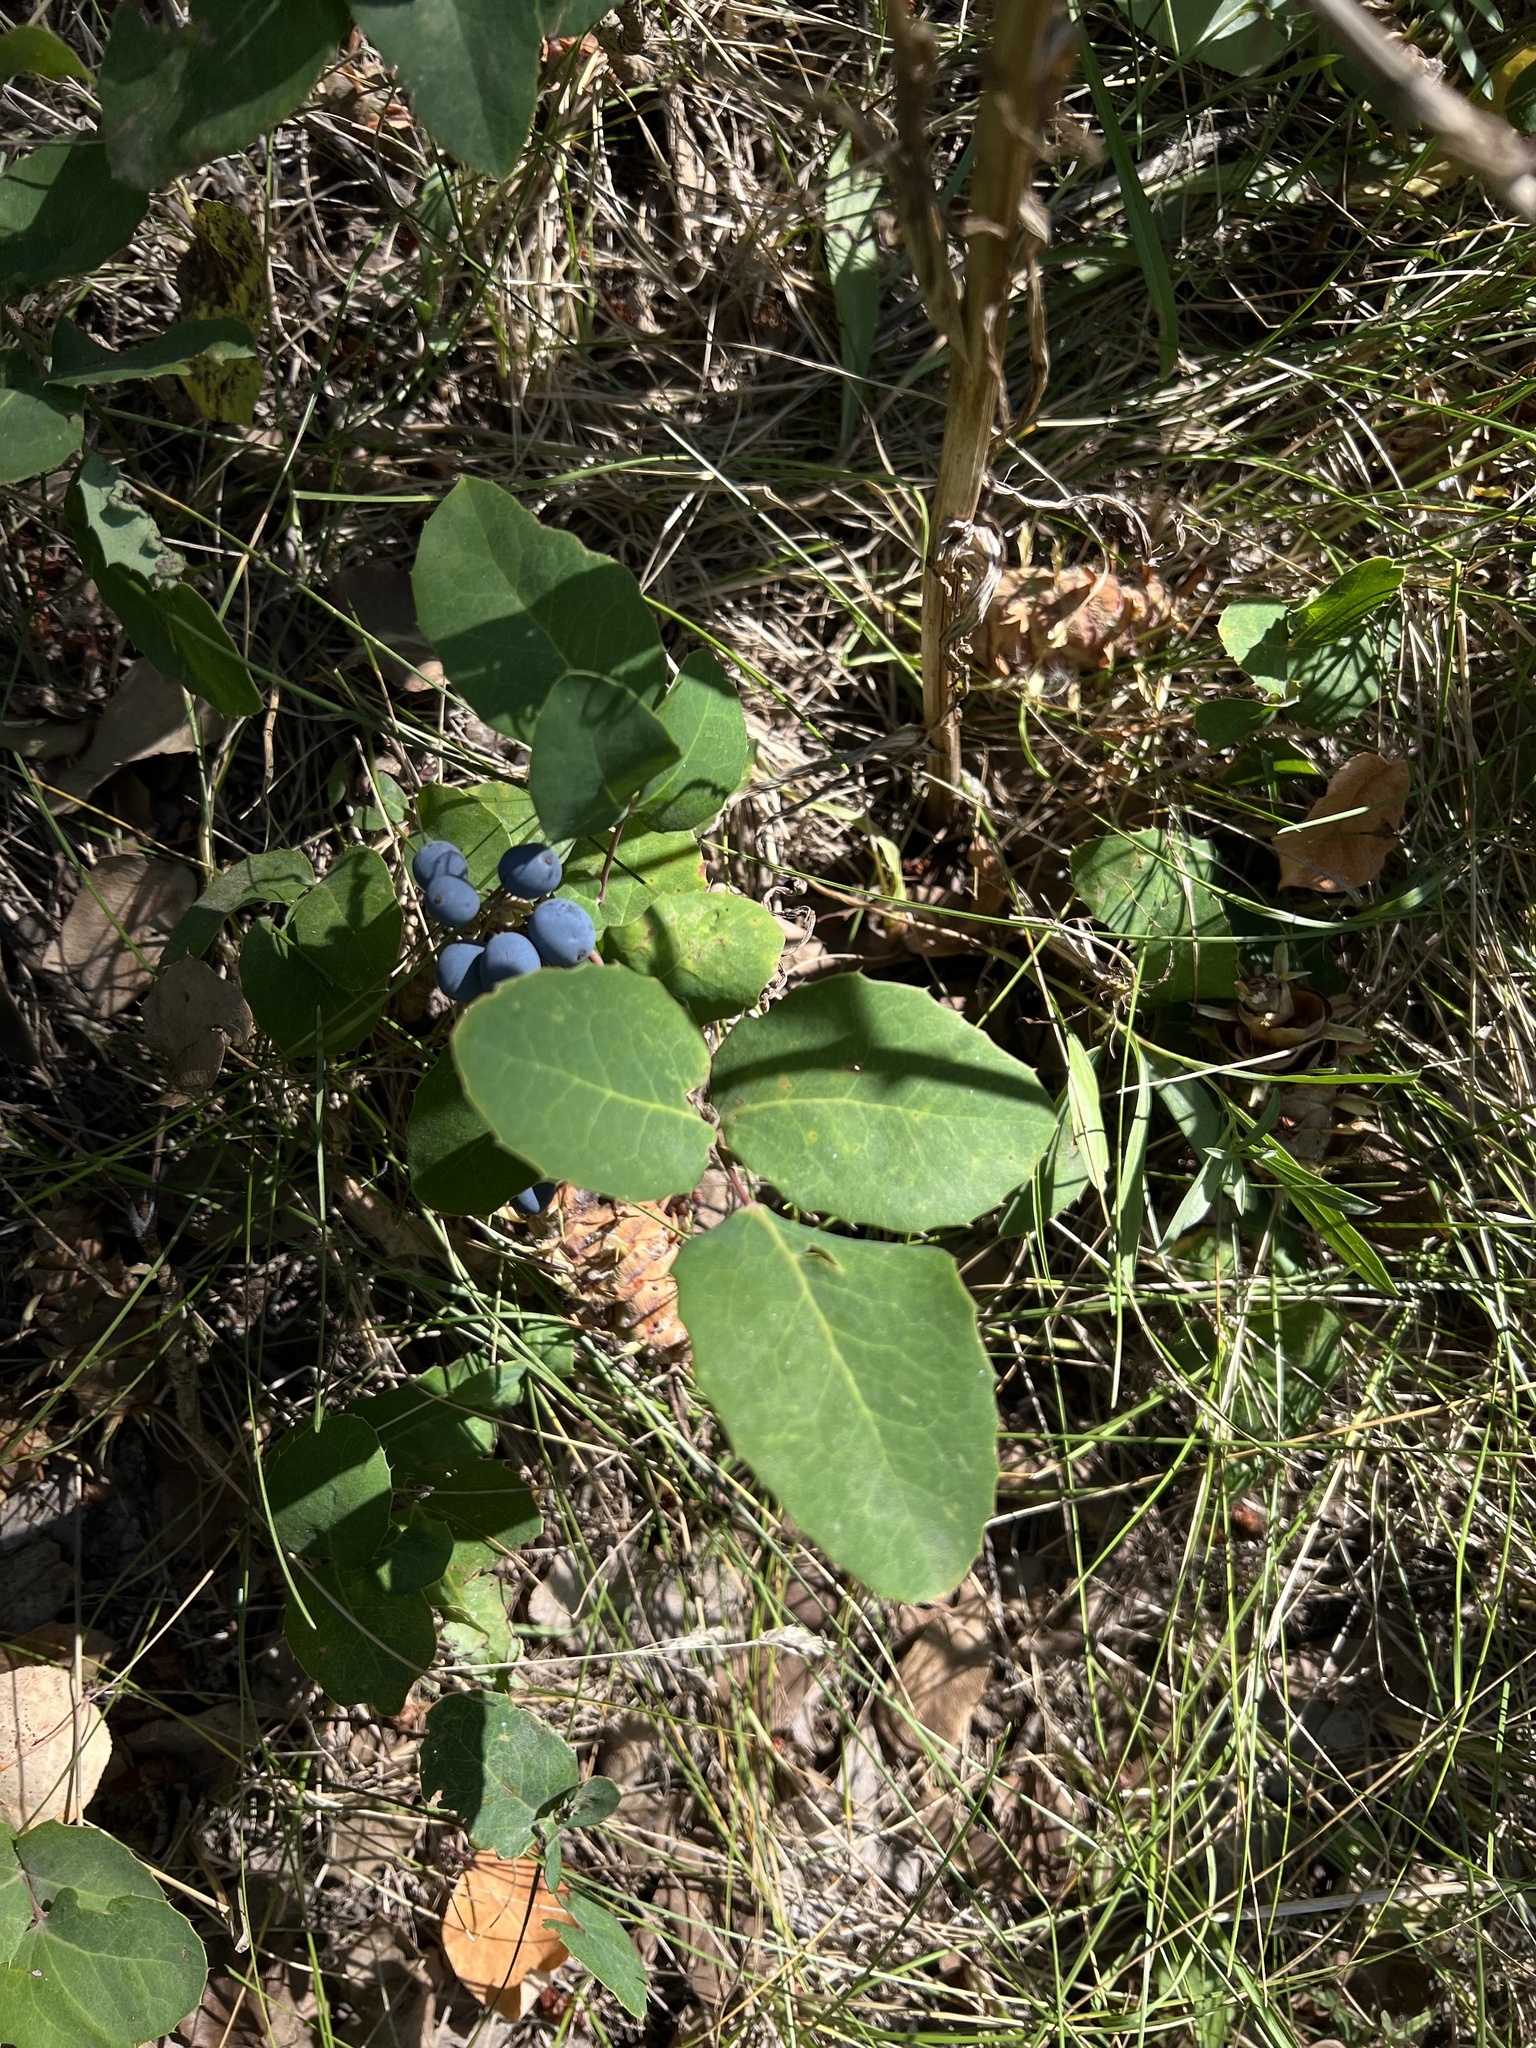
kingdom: Plantae
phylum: Tracheophyta
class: Magnoliopsida
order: Ranunculales
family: Berberidaceae
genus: Mahonia
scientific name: Mahonia repens
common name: Creeping oregon-grape
